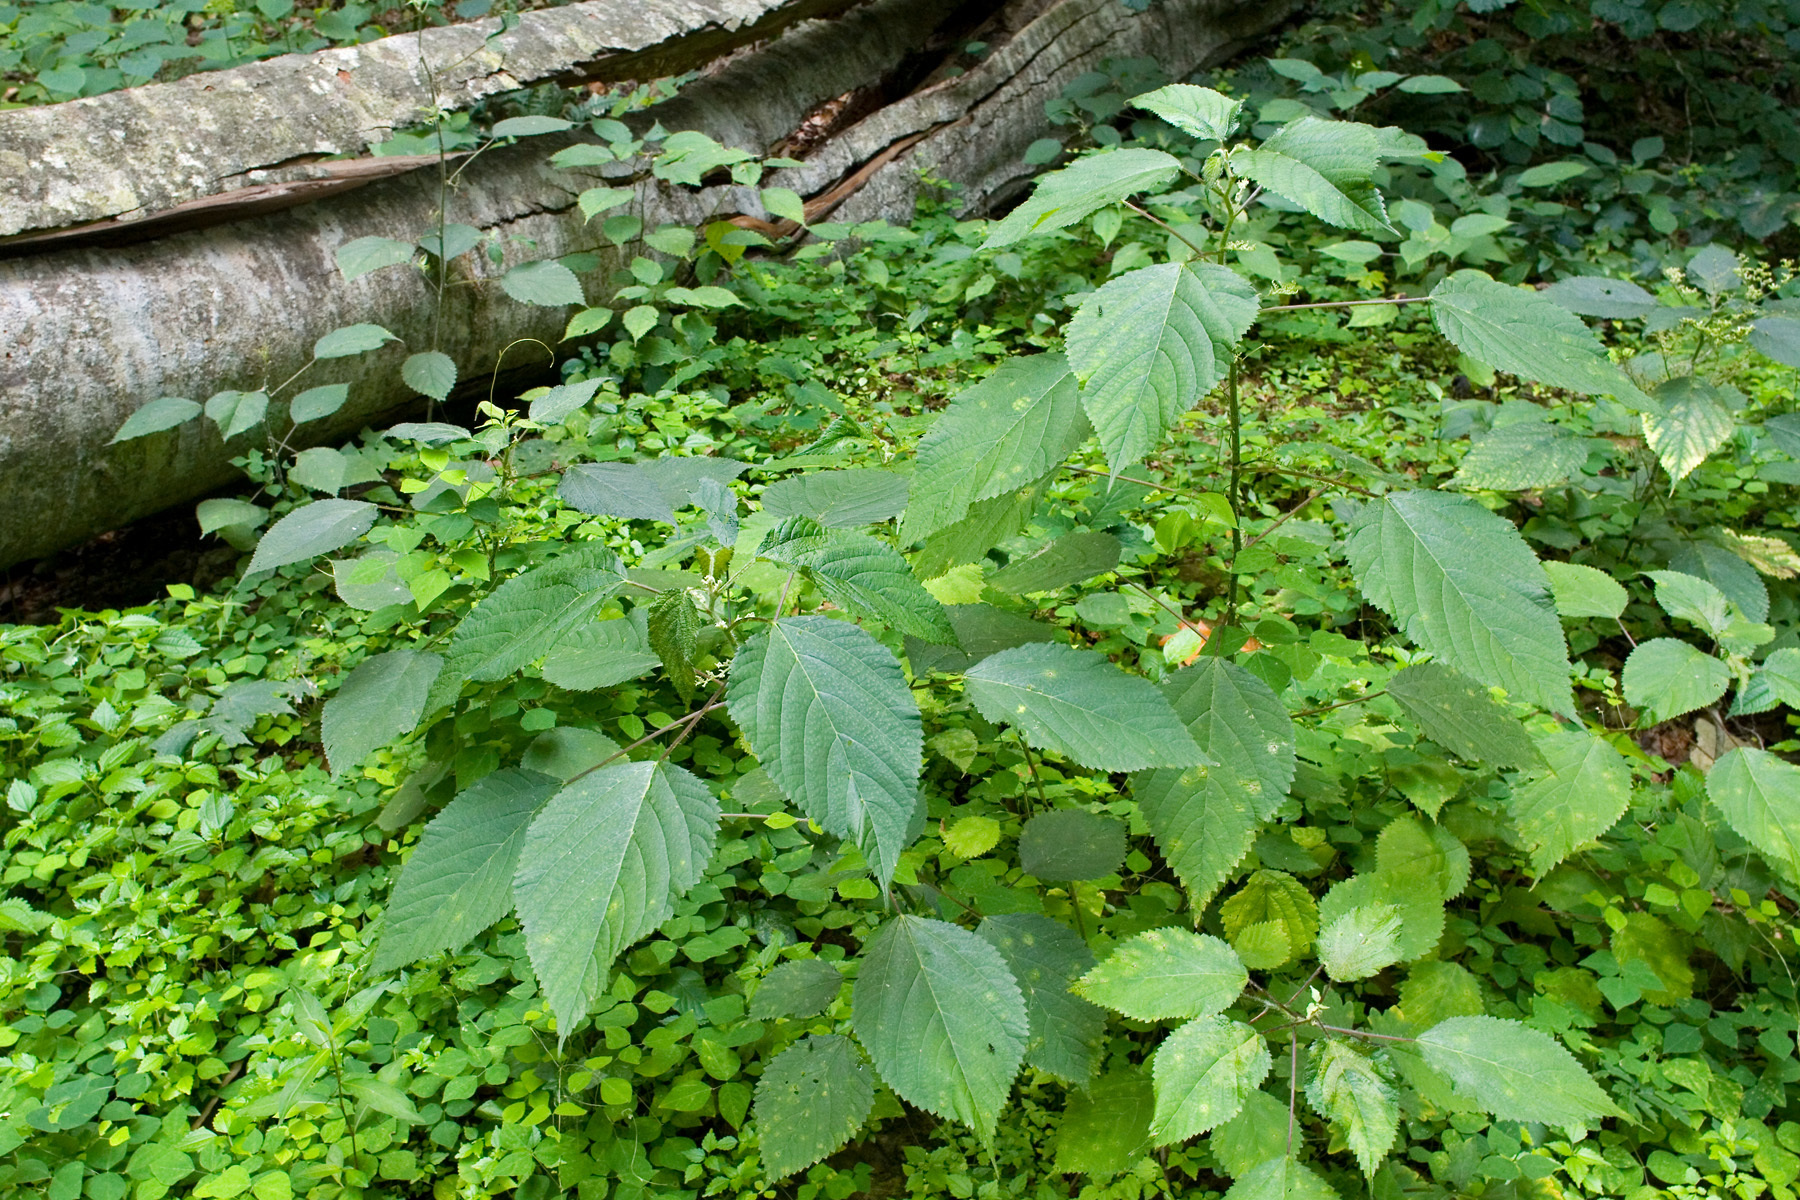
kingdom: Plantae
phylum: Tracheophyta
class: Magnoliopsida
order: Rosales
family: Urticaceae
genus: Laportea
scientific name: Laportea canadensis
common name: Canada nettle
